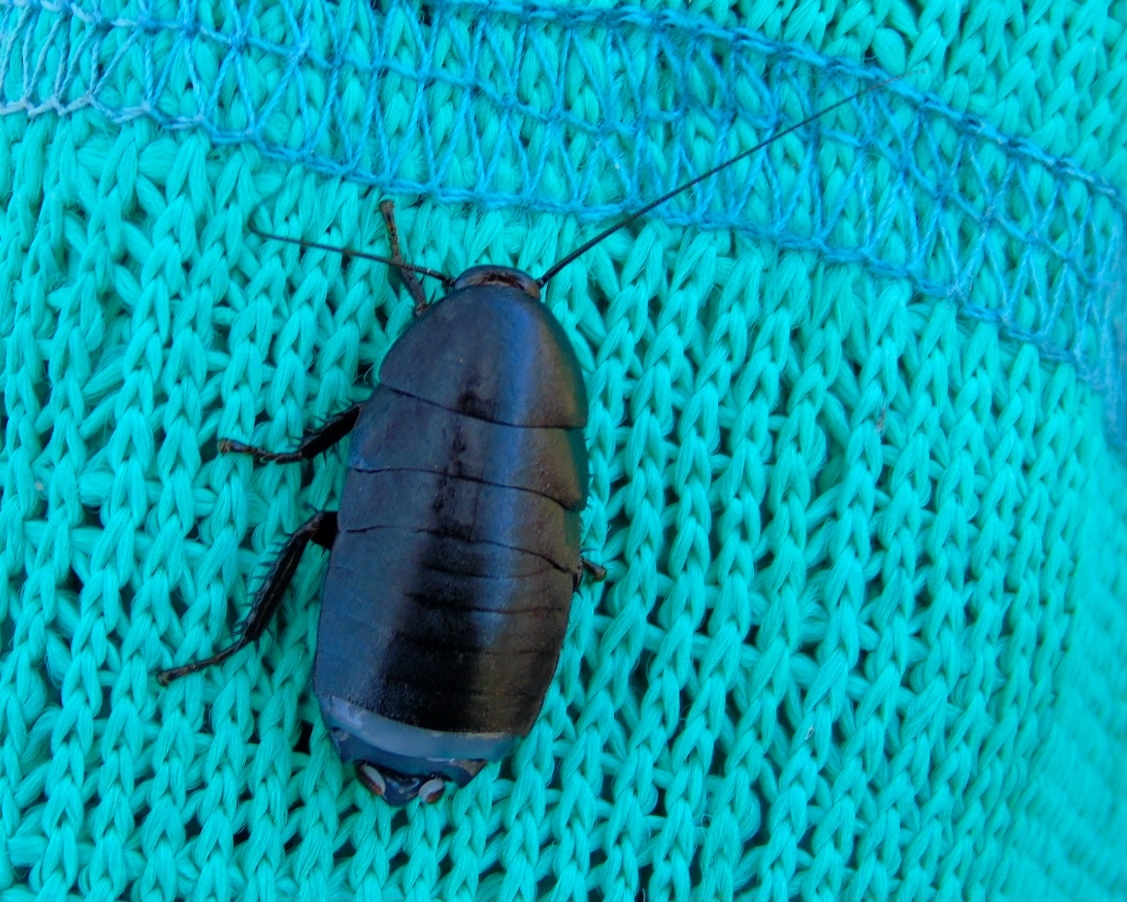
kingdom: Animalia
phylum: Arthropoda
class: Insecta
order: Blattodea
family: Ectobiidae
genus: Nyctibora
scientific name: Nyctibora
